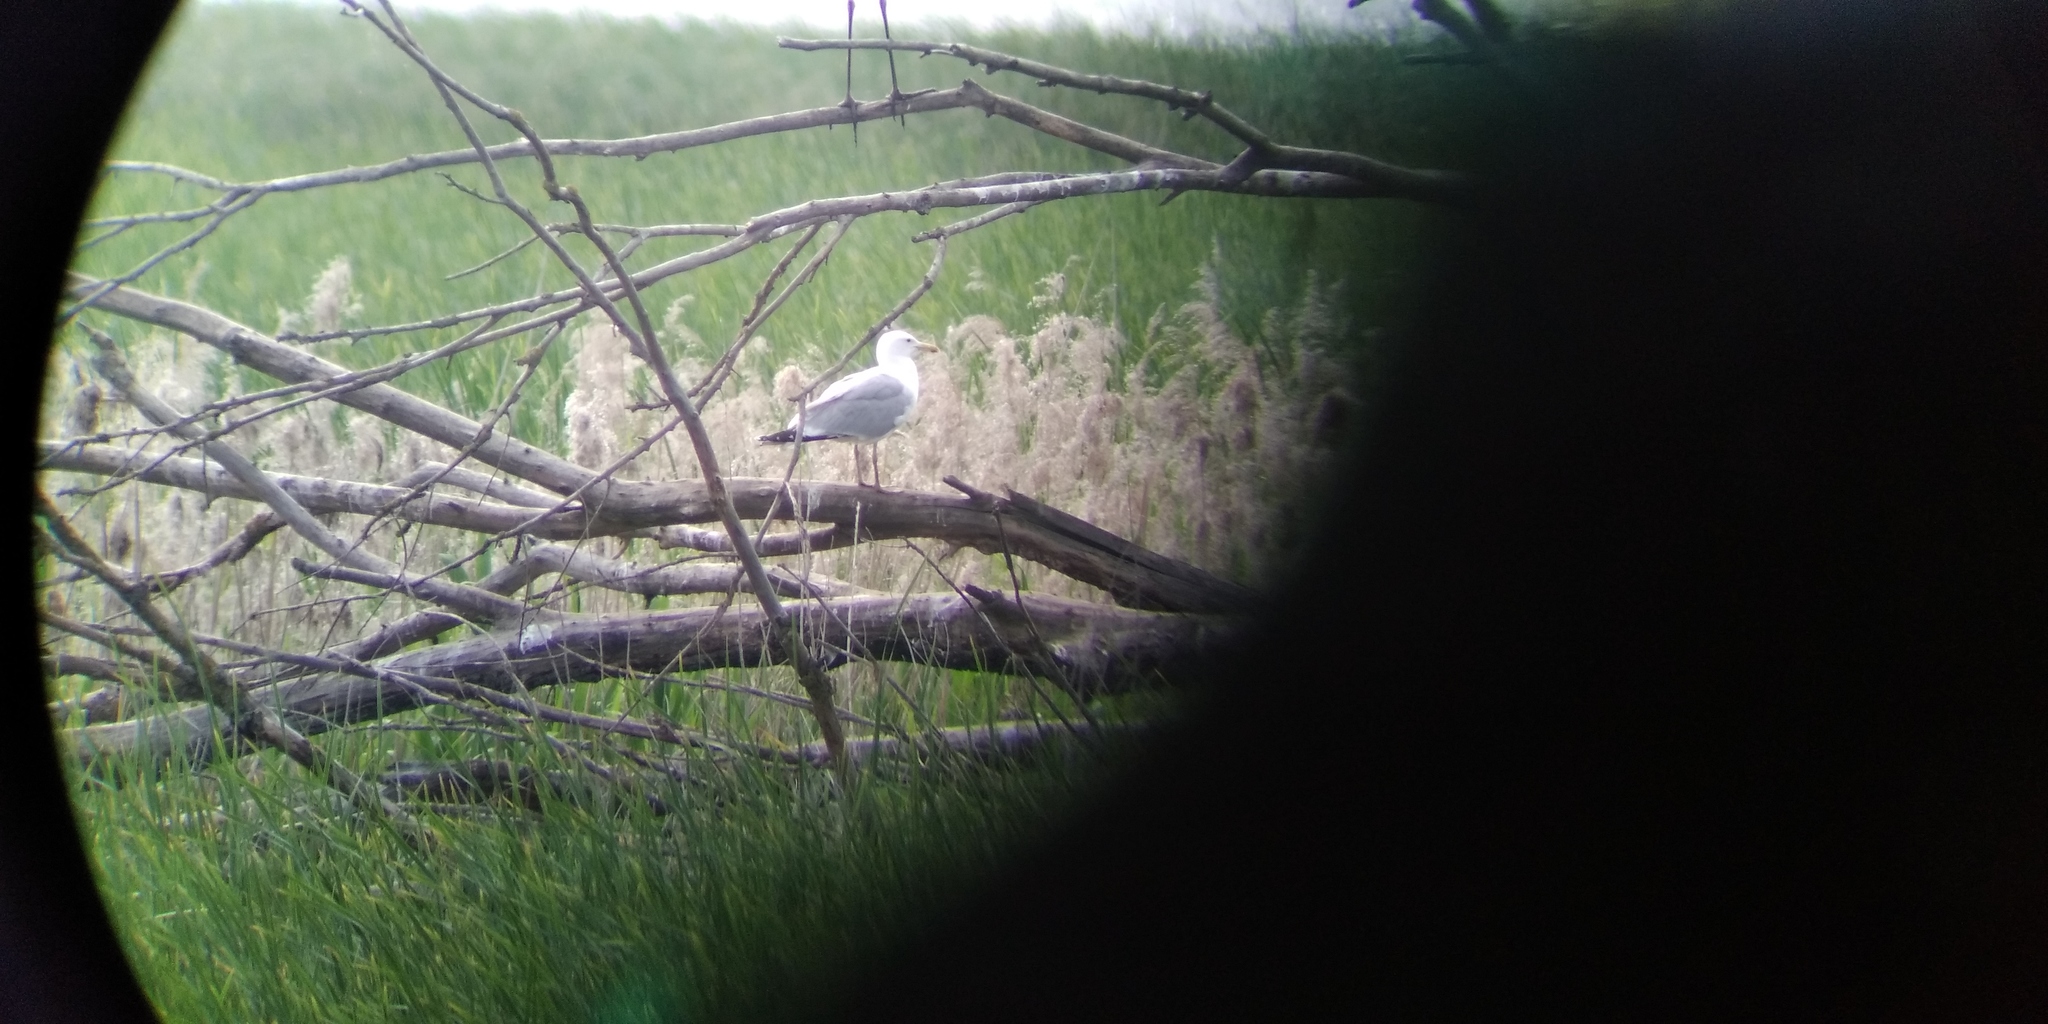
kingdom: Animalia
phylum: Chordata
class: Aves
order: Charadriiformes
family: Laridae
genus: Larus
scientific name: Larus cachinnans
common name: Caspian gull
